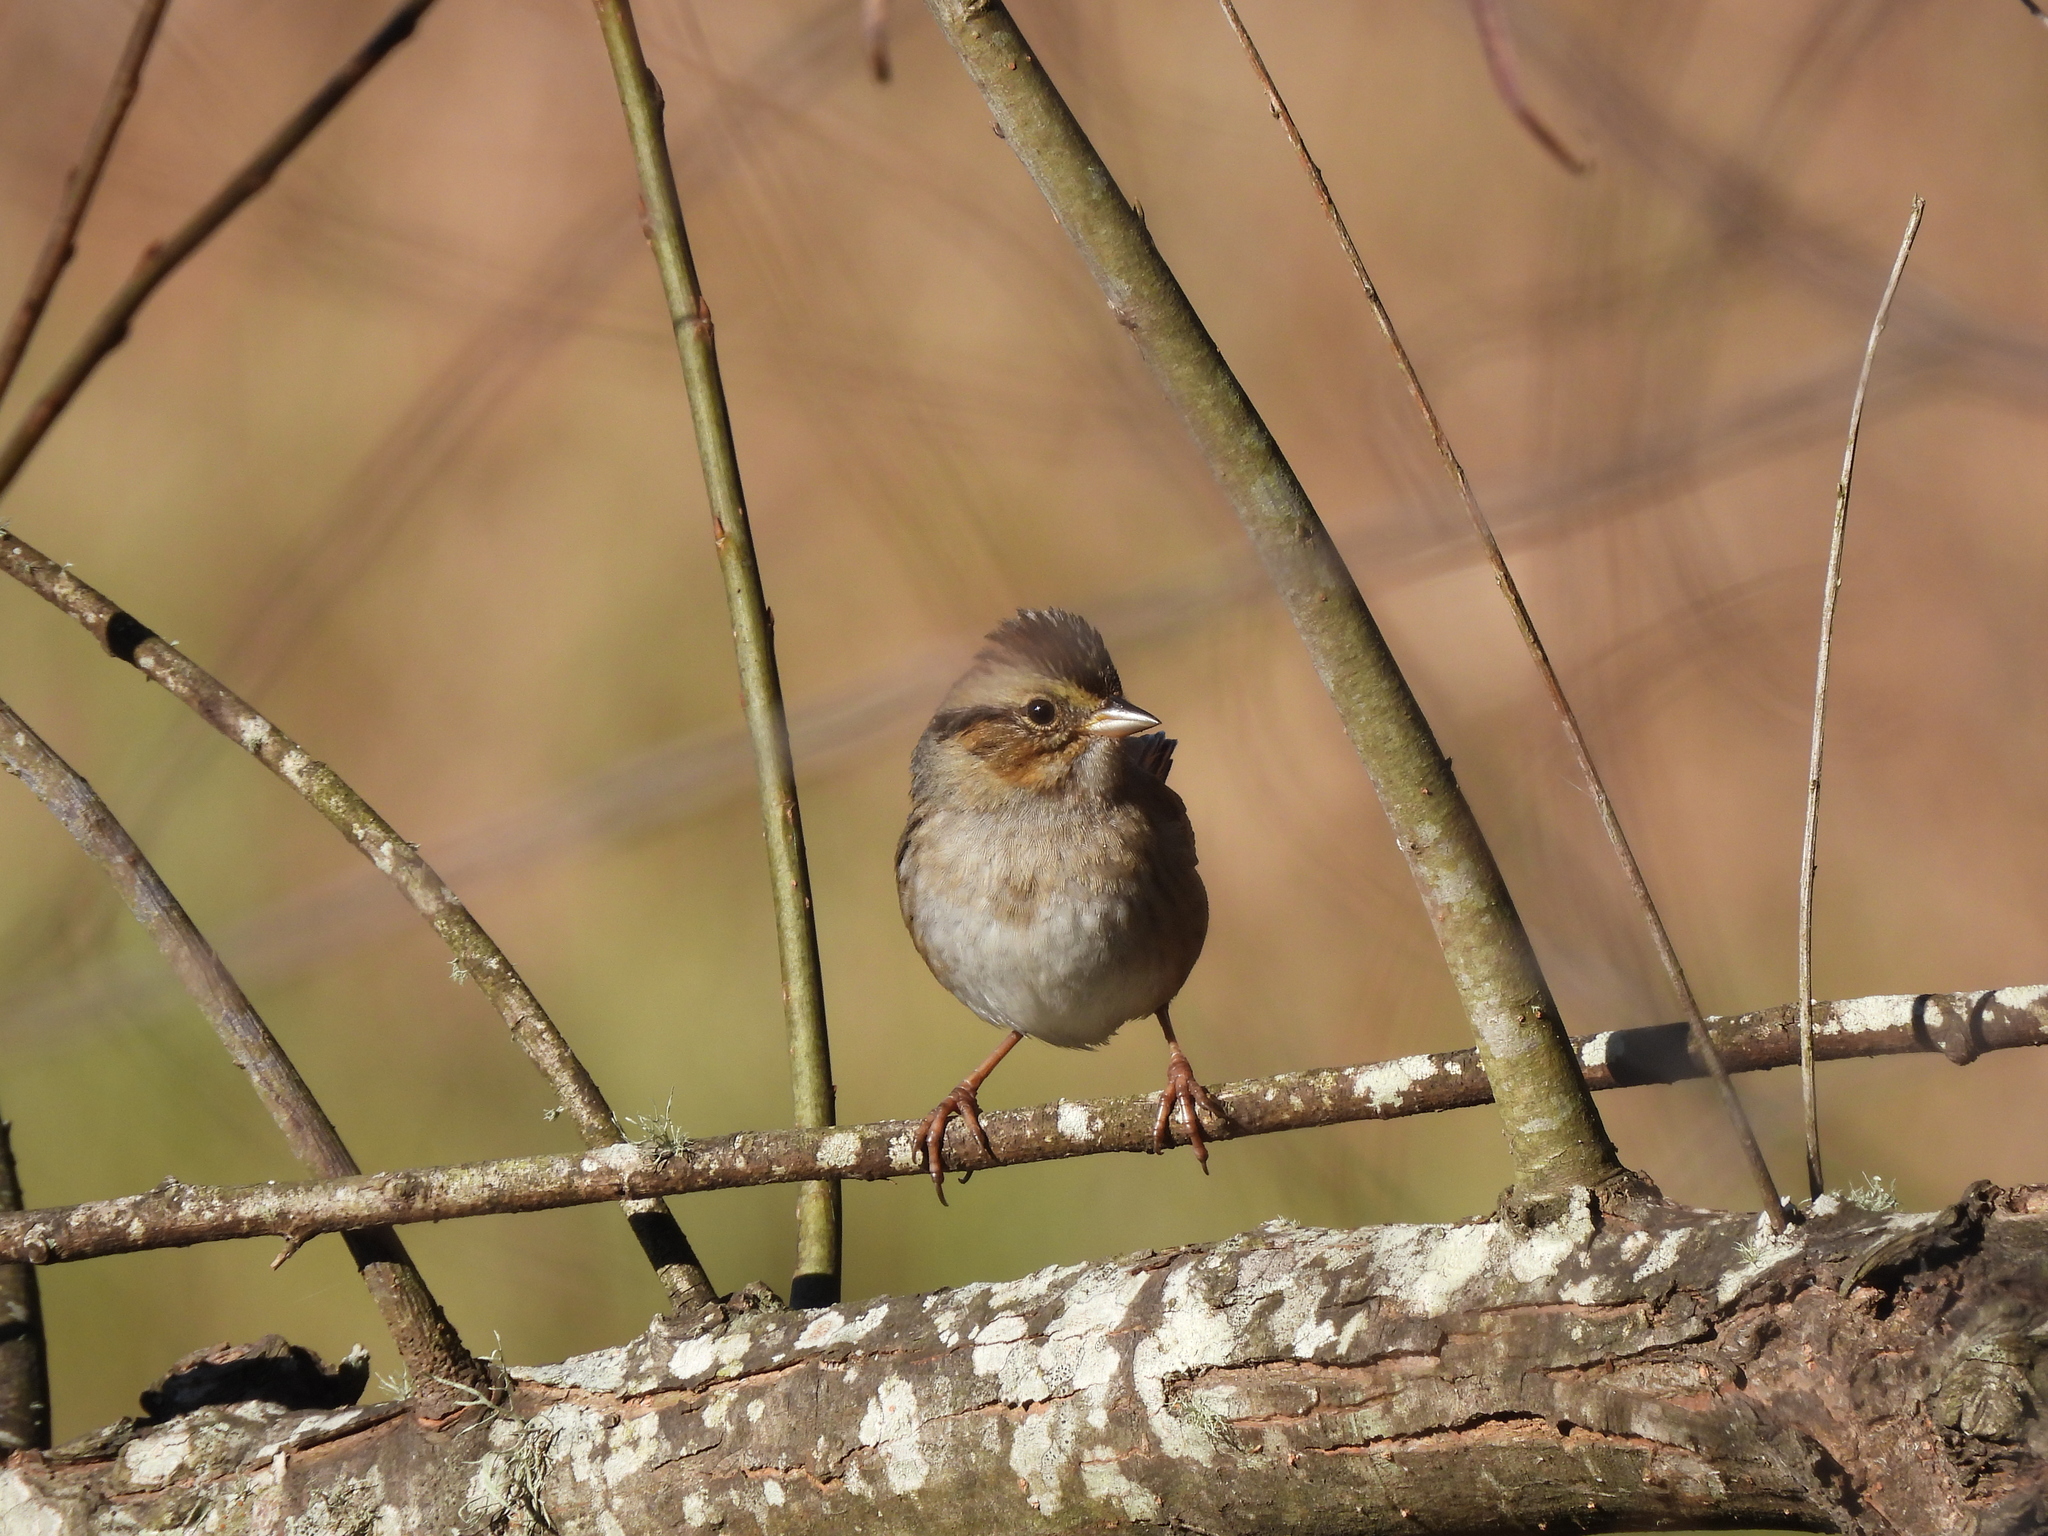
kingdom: Animalia
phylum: Chordata
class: Aves
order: Passeriformes
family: Passerellidae
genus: Melospiza
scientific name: Melospiza georgiana
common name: Swamp sparrow
